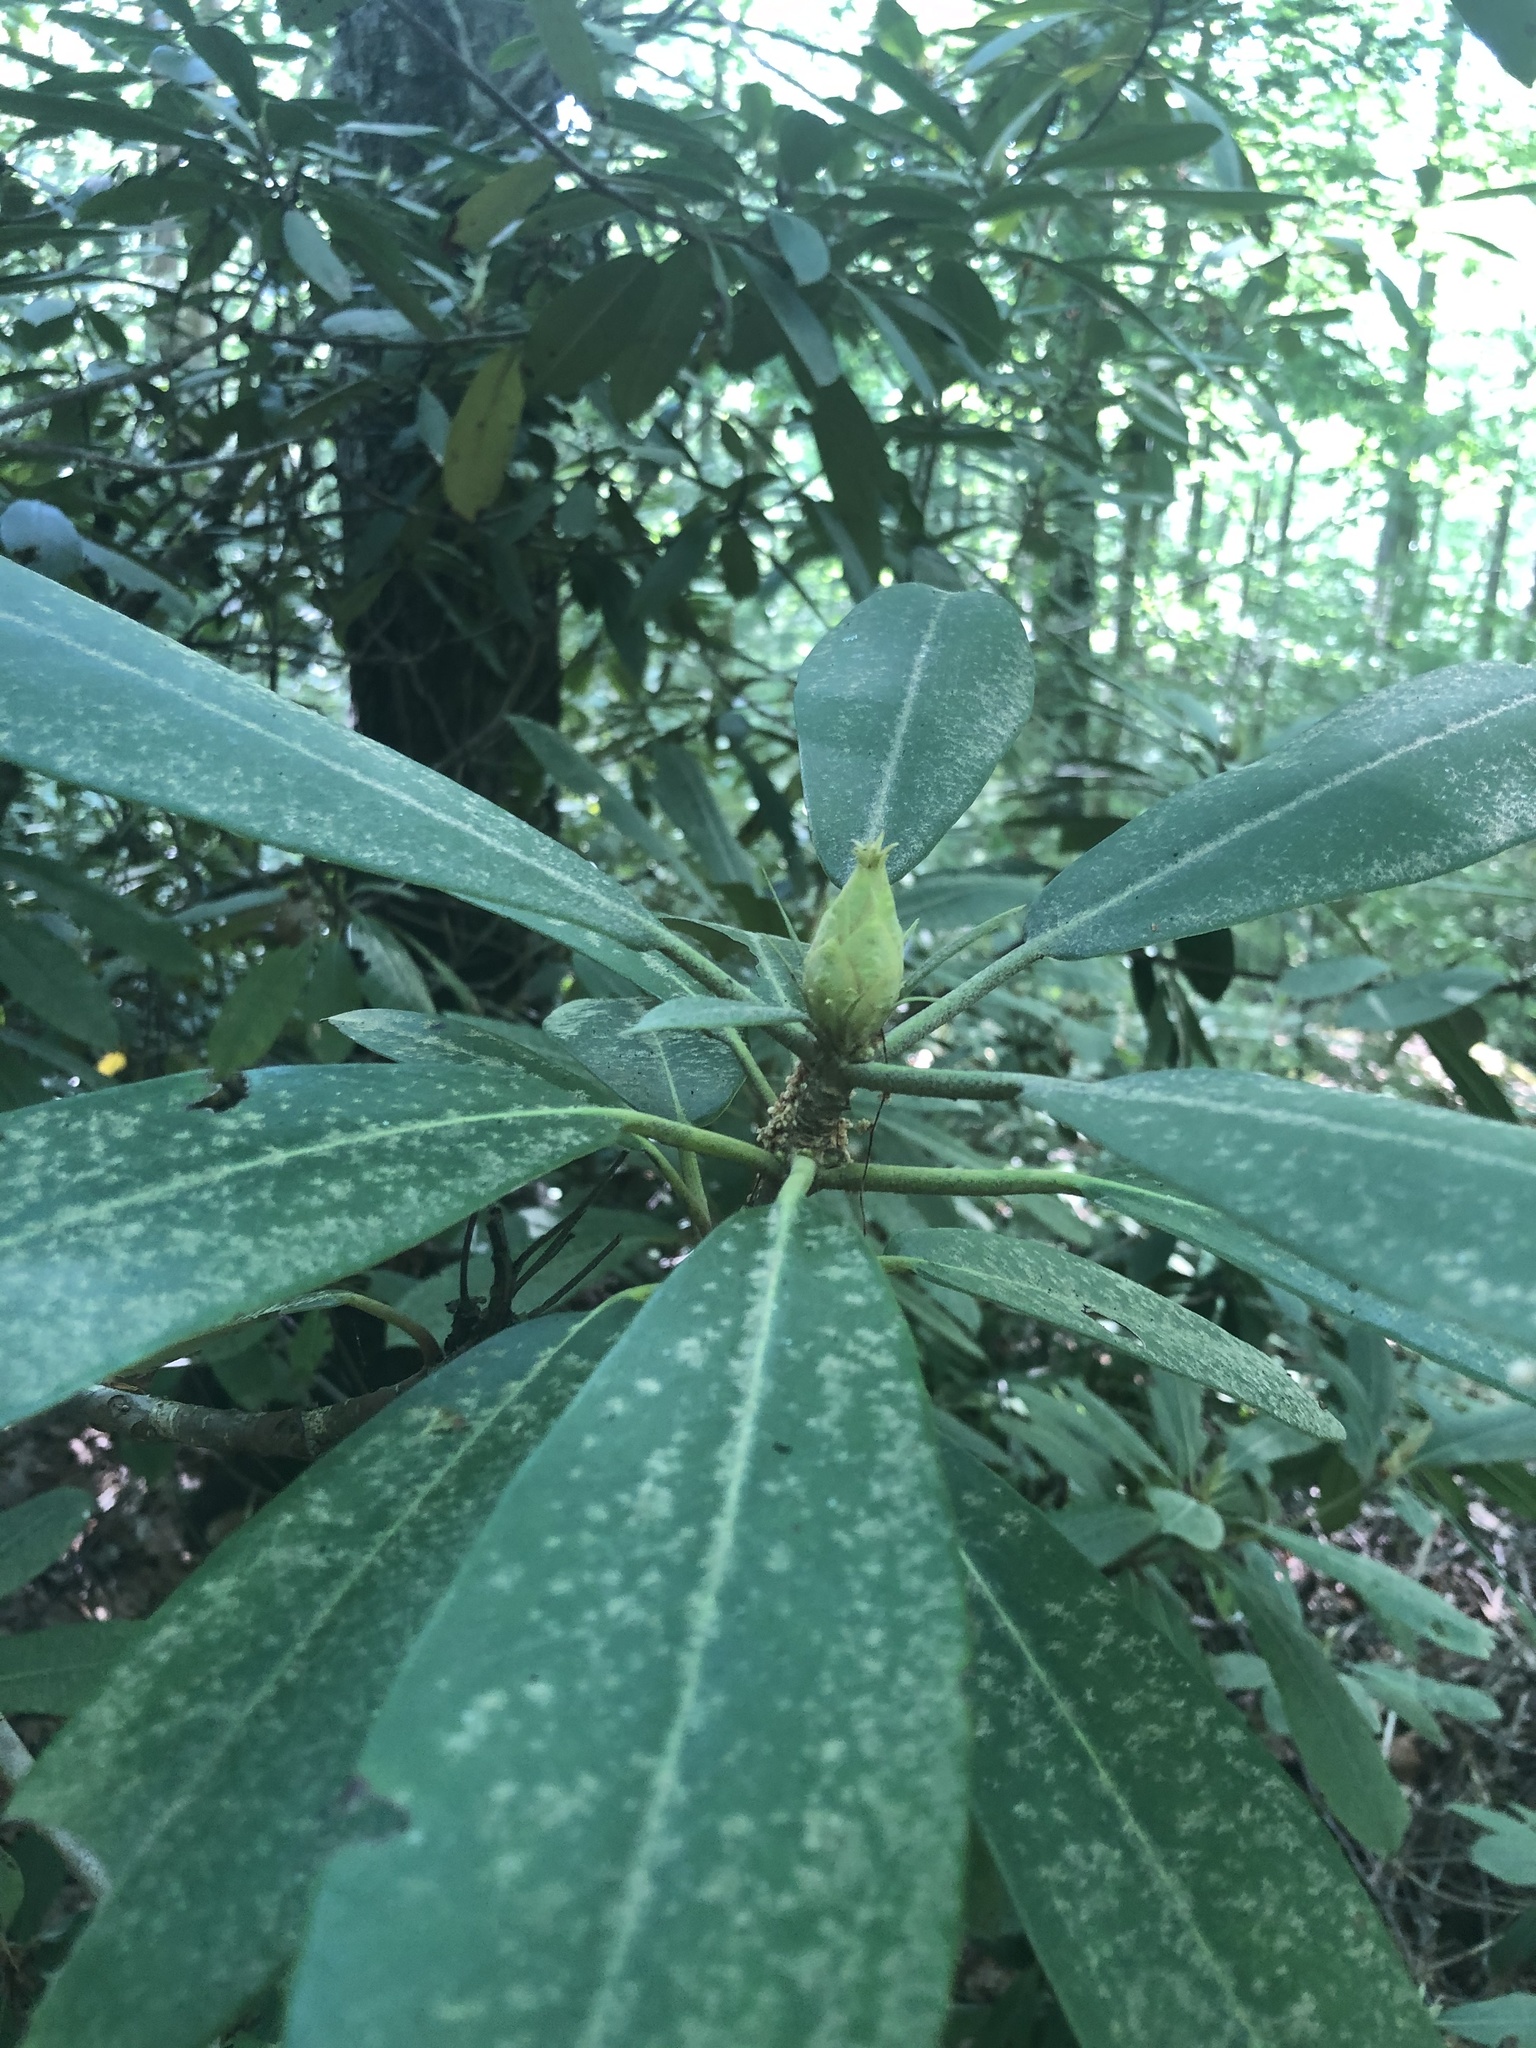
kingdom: Plantae
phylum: Tracheophyta
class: Magnoliopsida
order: Ericales
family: Ericaceae
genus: Rhododendron
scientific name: Rhododendron maximum
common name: Great rhododendron
